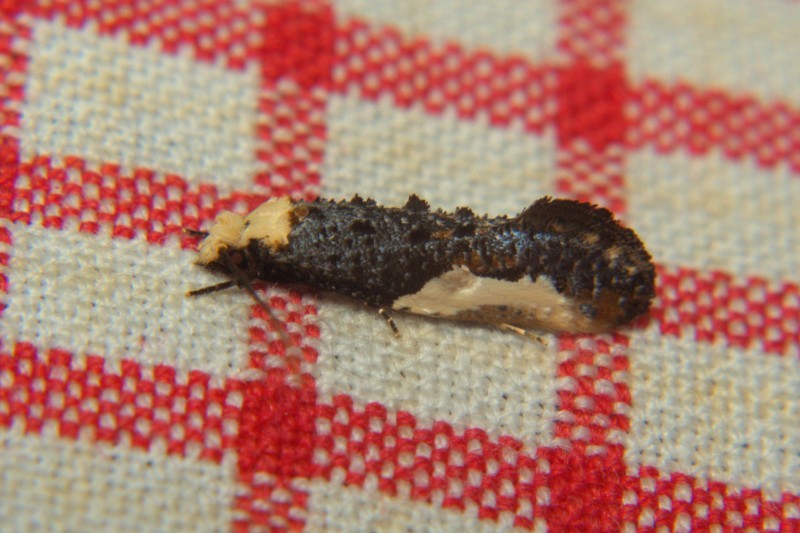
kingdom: Animalia
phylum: Arthropoda
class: Insecta
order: Lepidoptera
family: Tineidae
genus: Monopis
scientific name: Monopis monachella
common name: Moth
